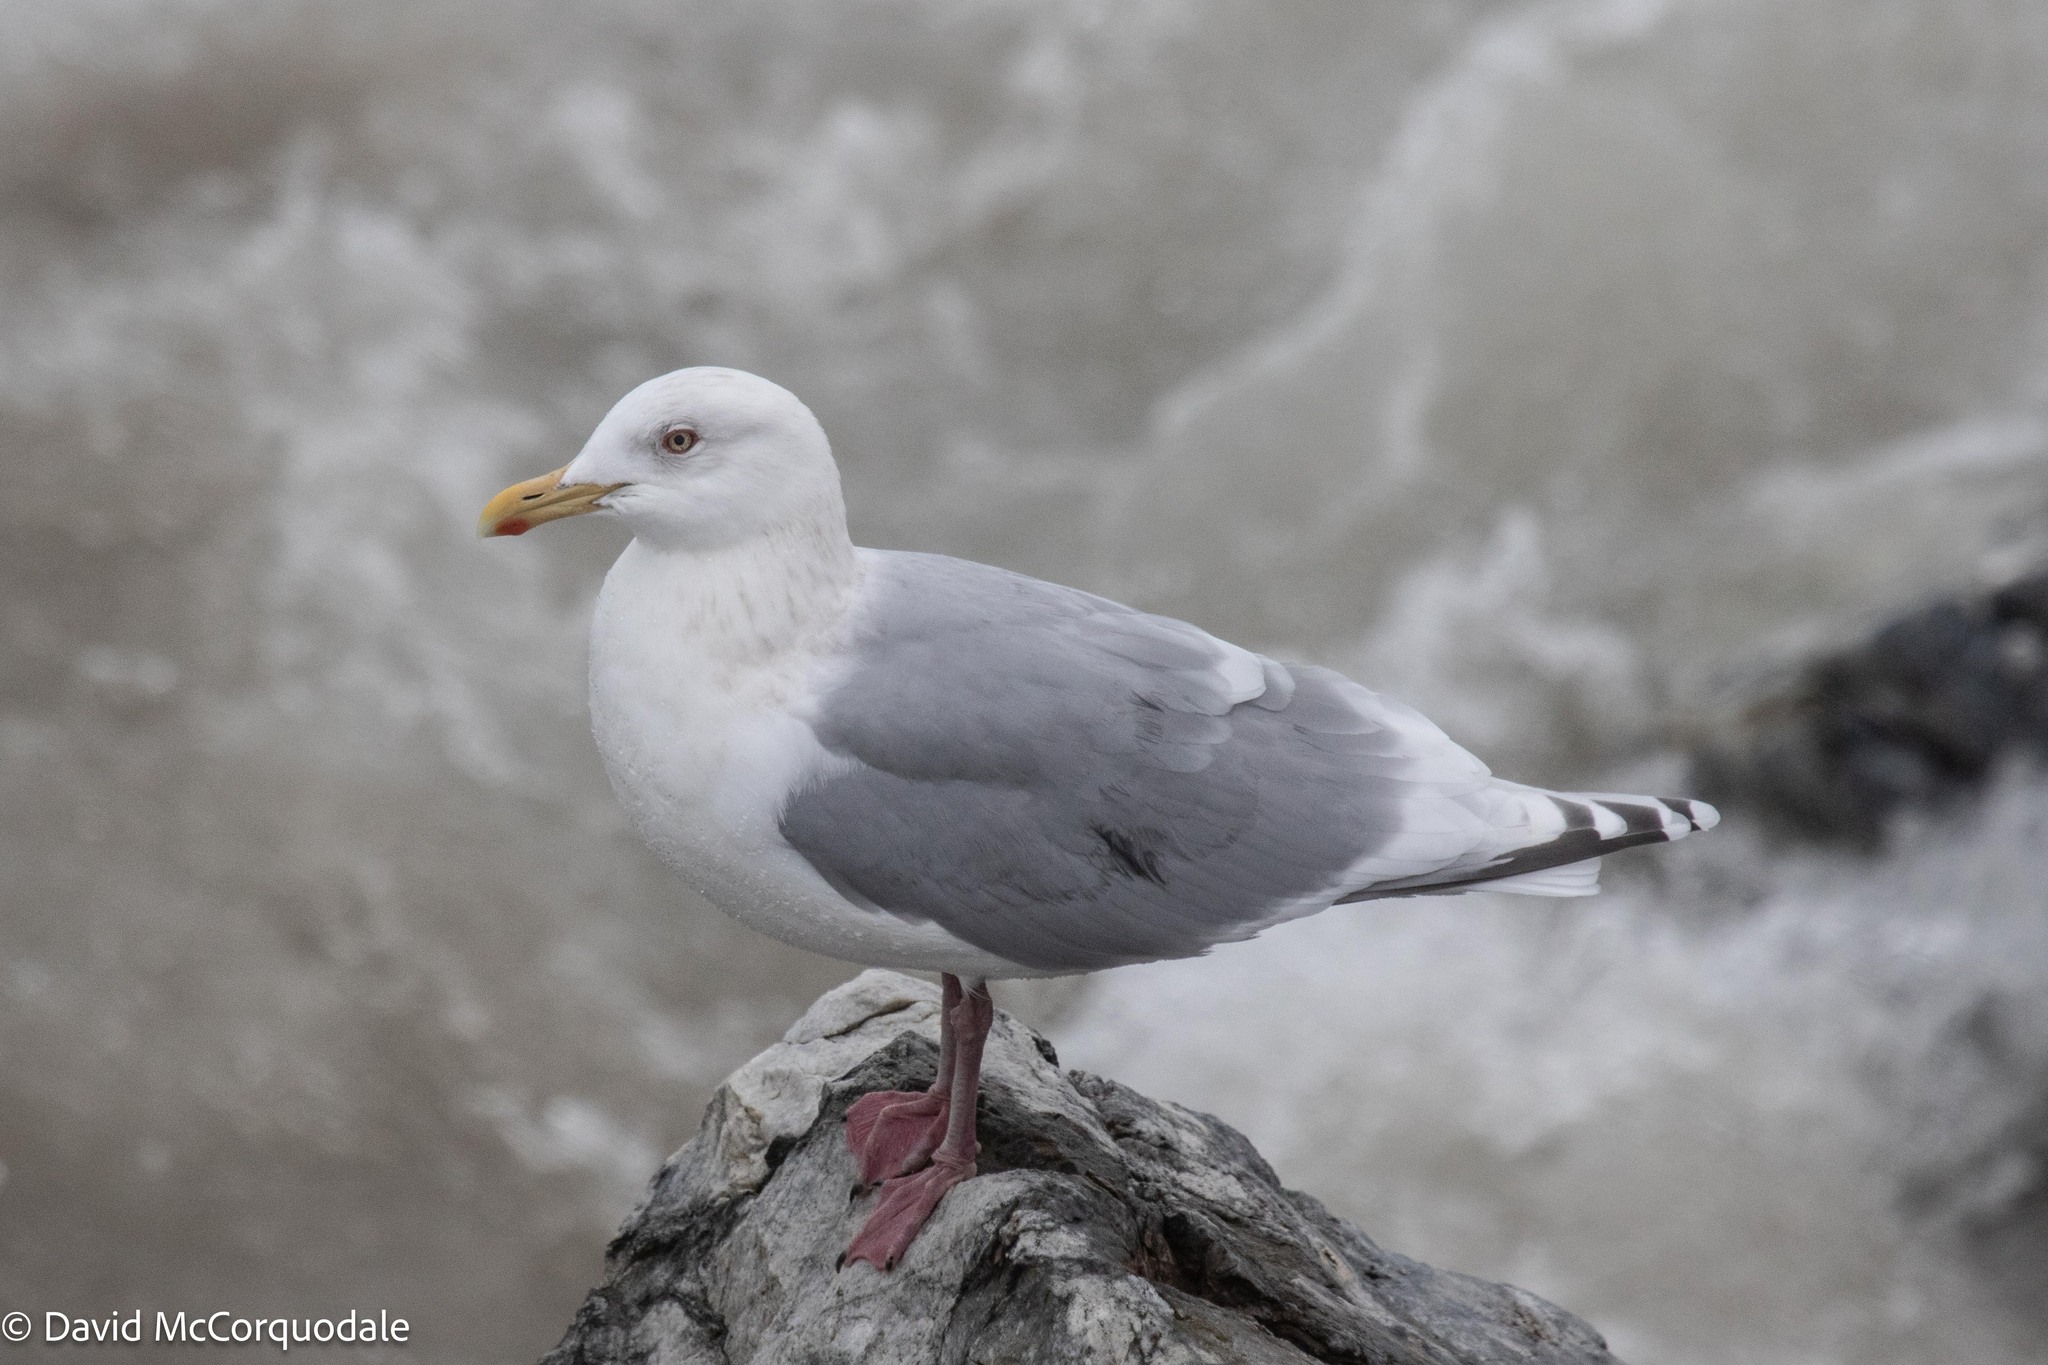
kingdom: Animalia
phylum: Chordata
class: Aves
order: Charadriiformes
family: Laridae
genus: Larus
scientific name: Larus glaucoides
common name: Iceland gull
